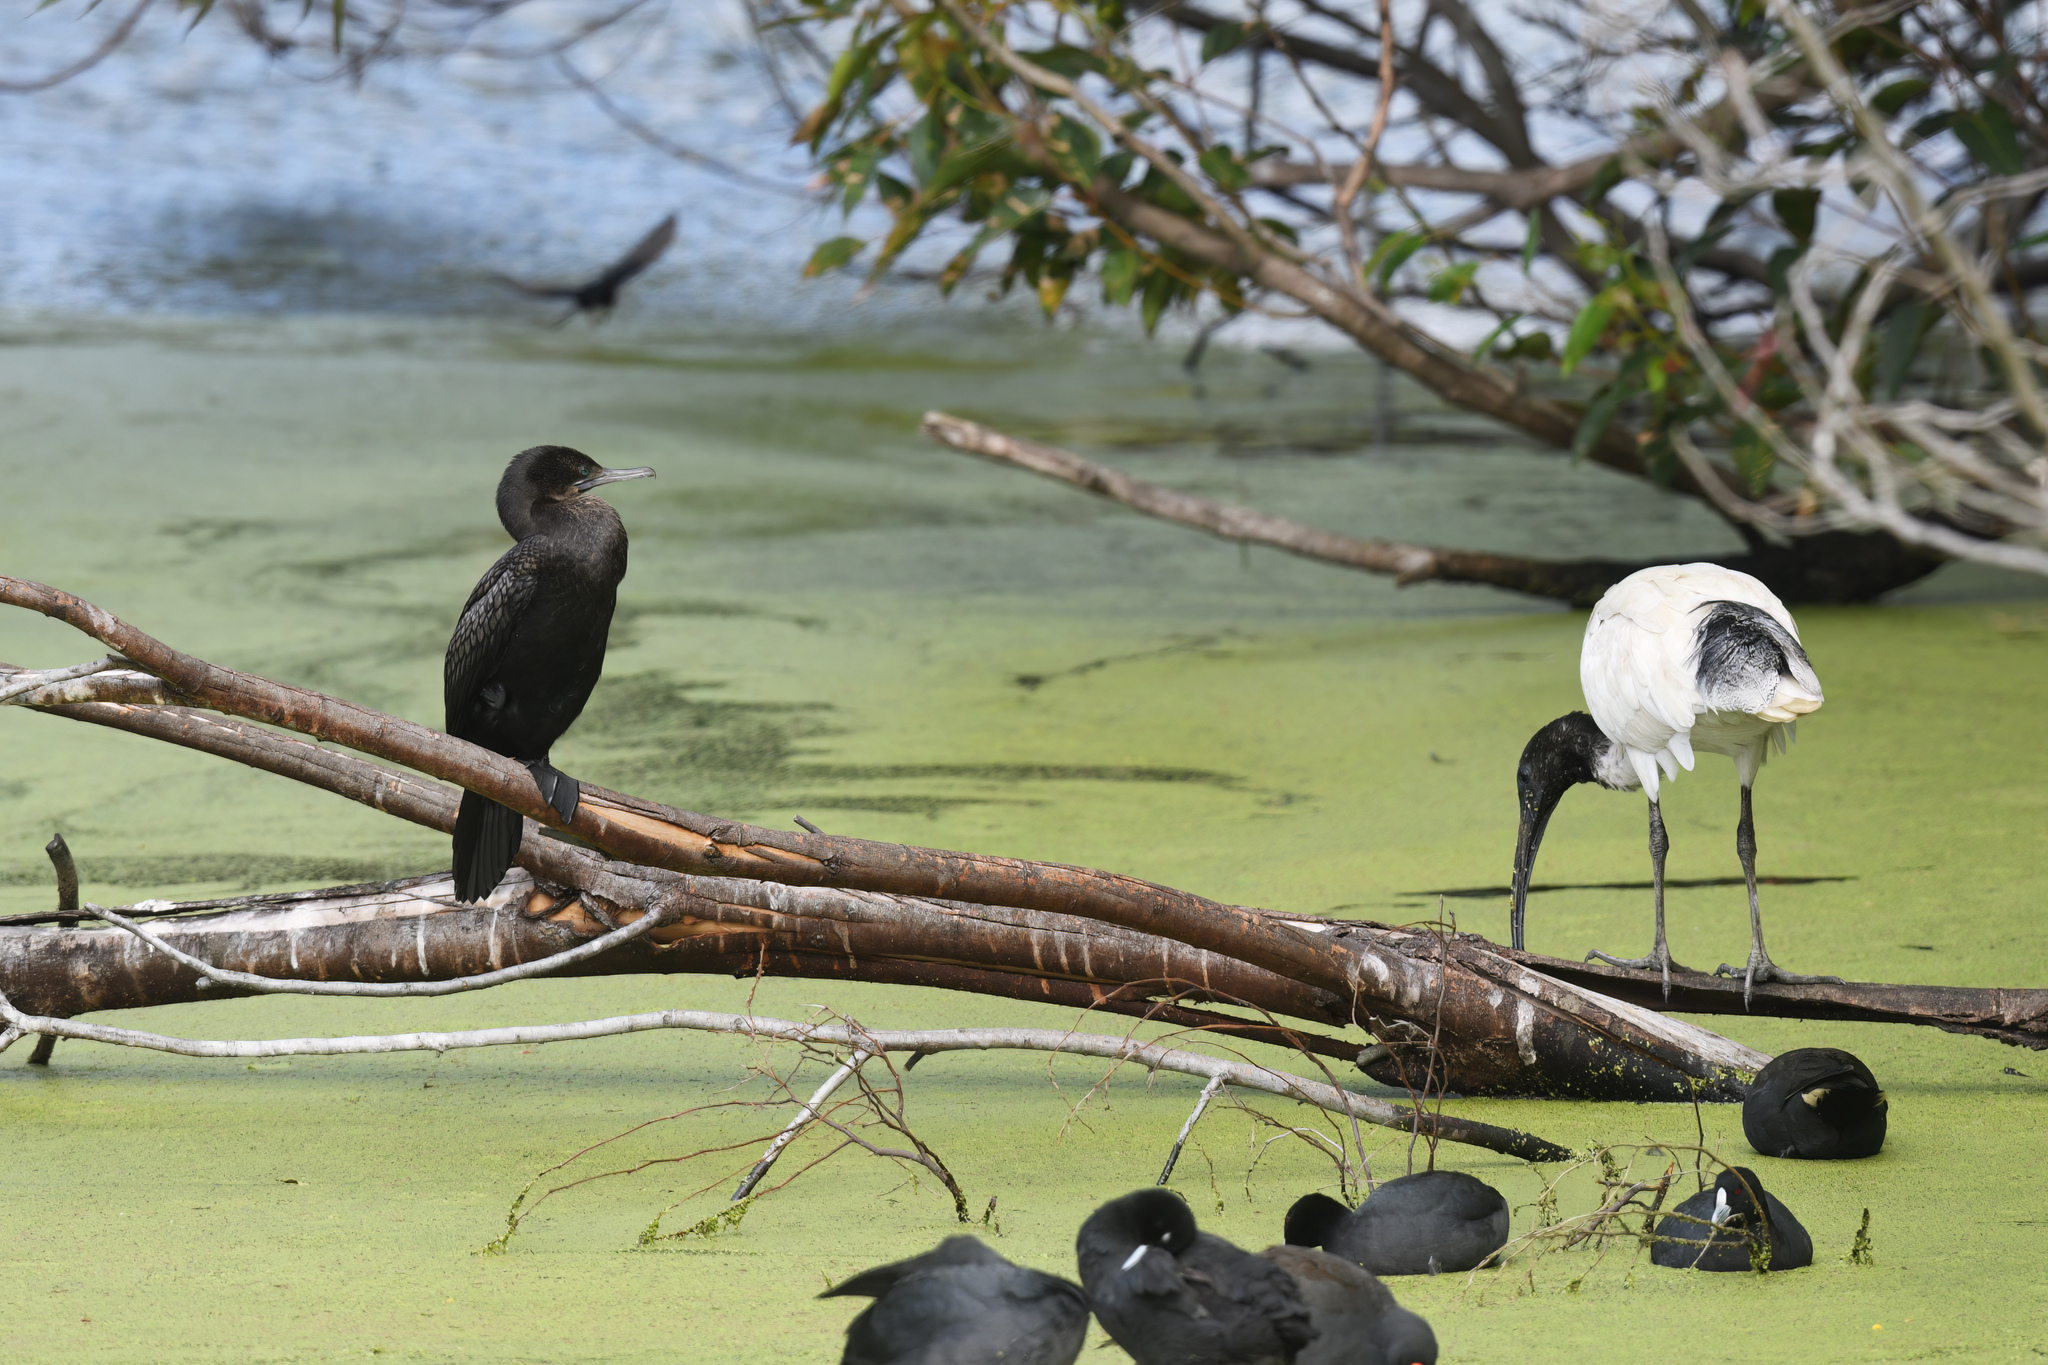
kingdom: Animalia
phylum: Chordata
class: Aves
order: Suliformes
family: Phalacrocoracidae
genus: Phalacrocorax
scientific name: Phalacrocorax sulcirostris
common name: Little black cormorant
